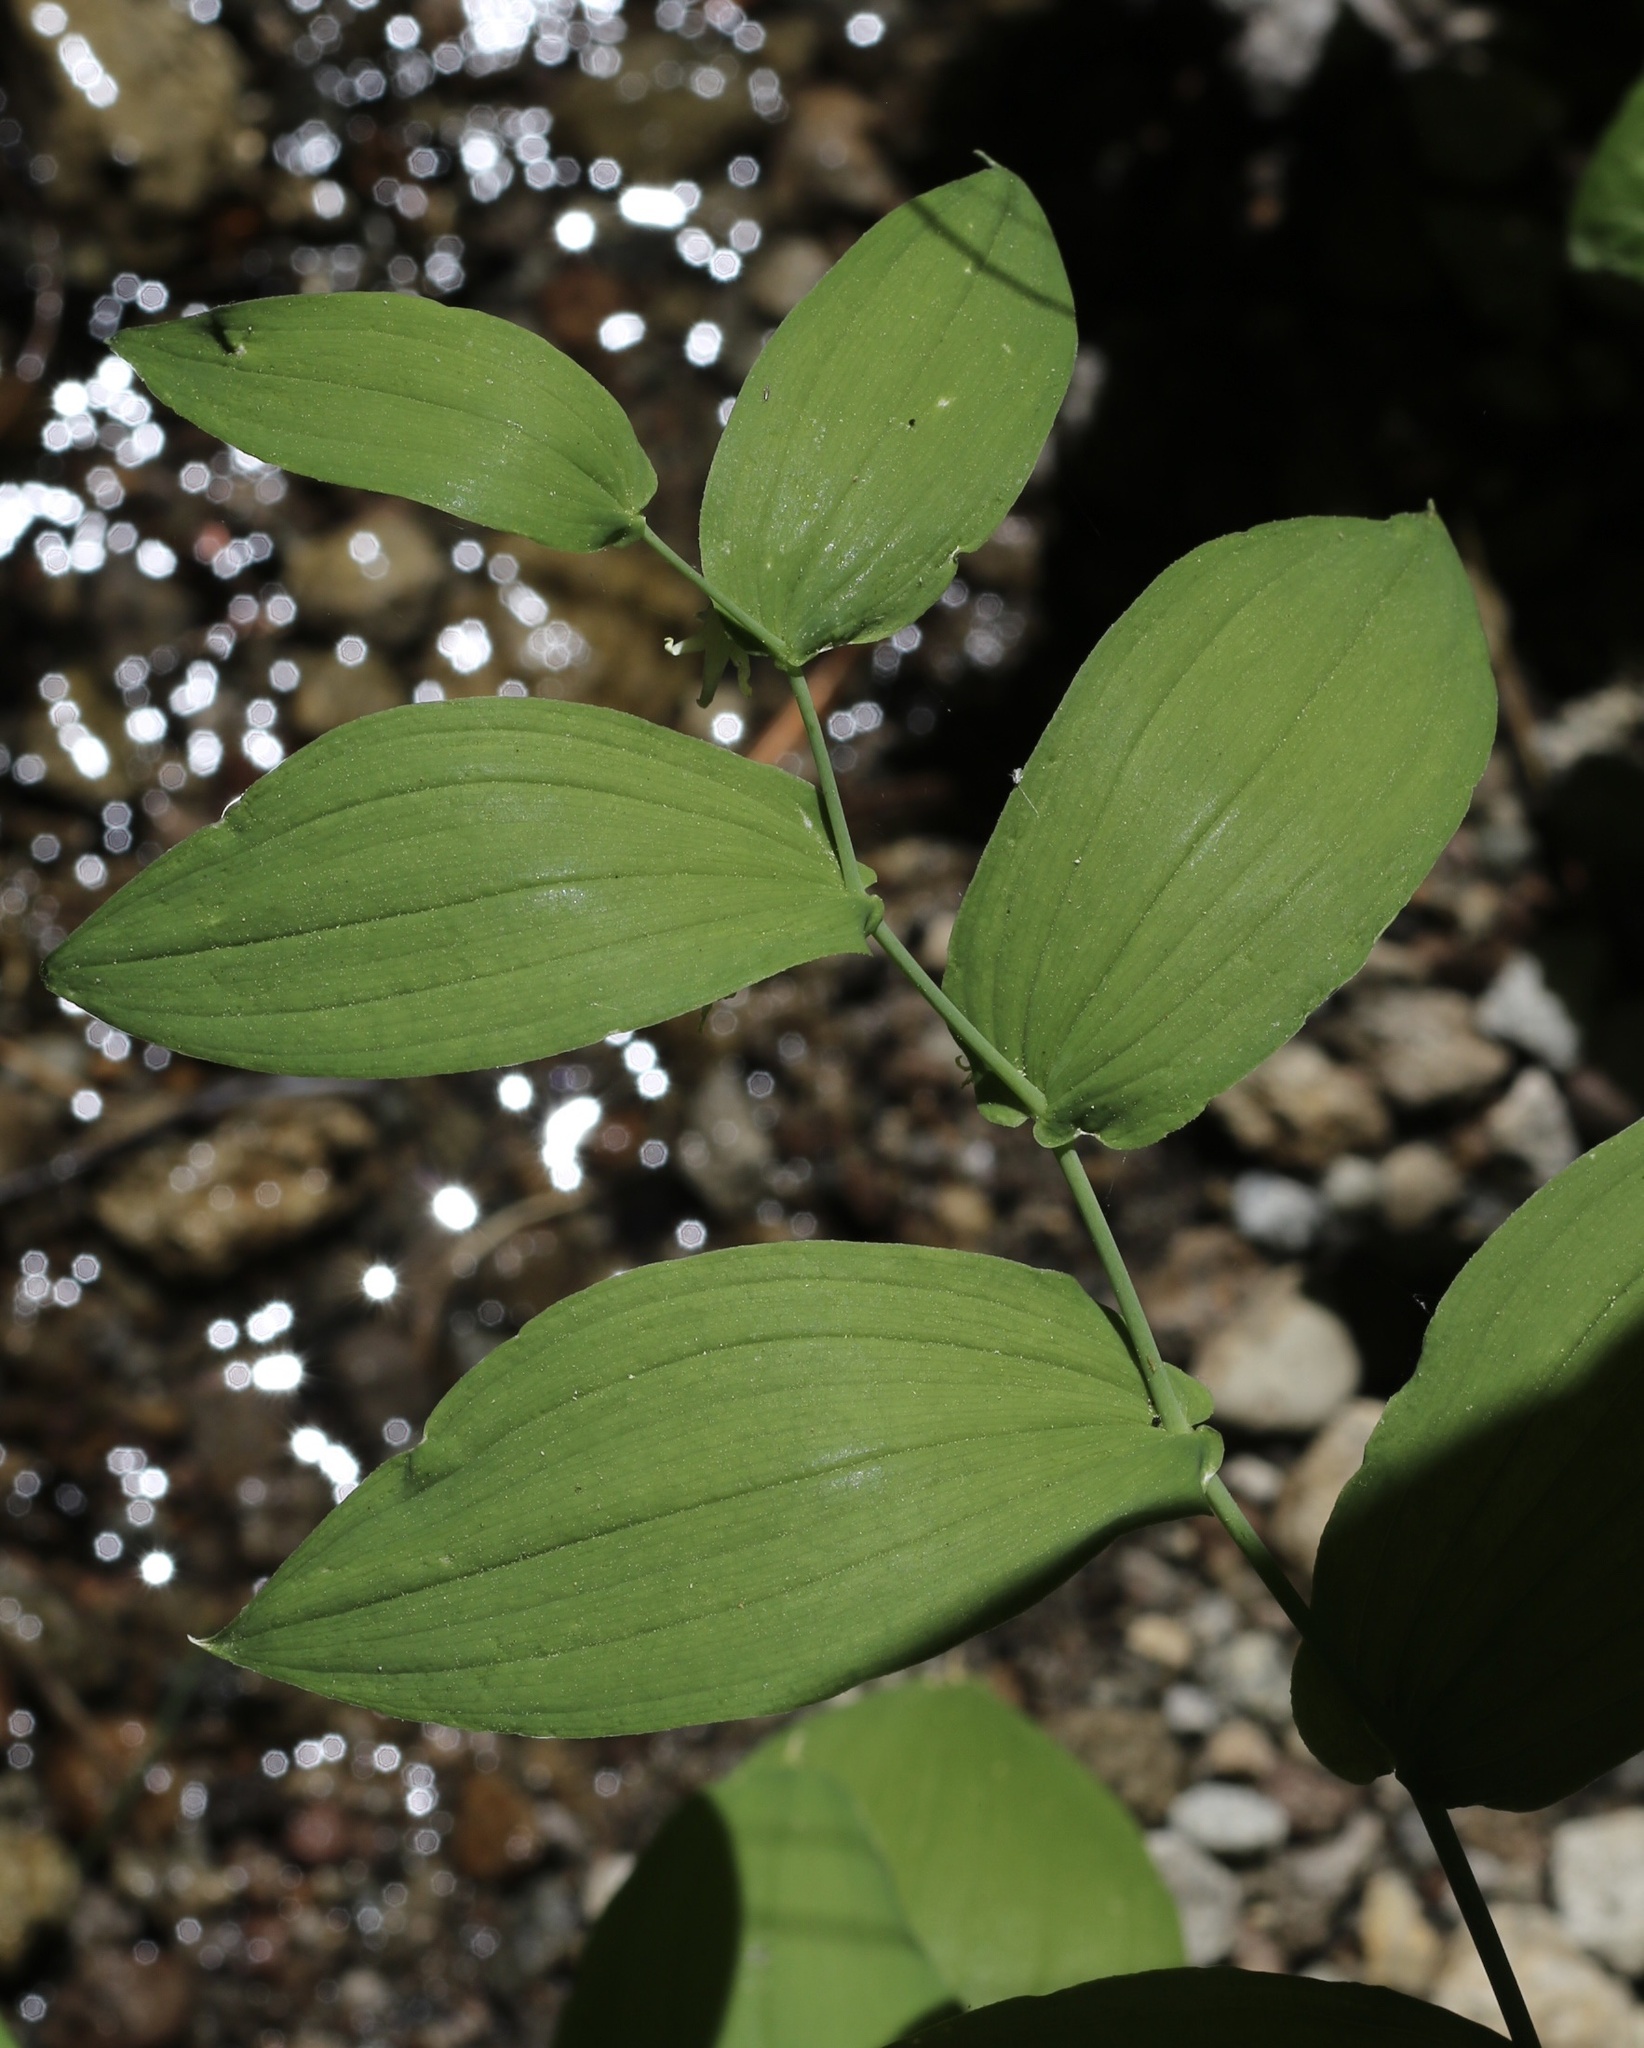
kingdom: Plantae
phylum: Tracheophyta
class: Liliopsida
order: Liliales
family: Liliaceae
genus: Streptopus
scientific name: Streptopus amplexifolius
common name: Clasp twisted stalk
